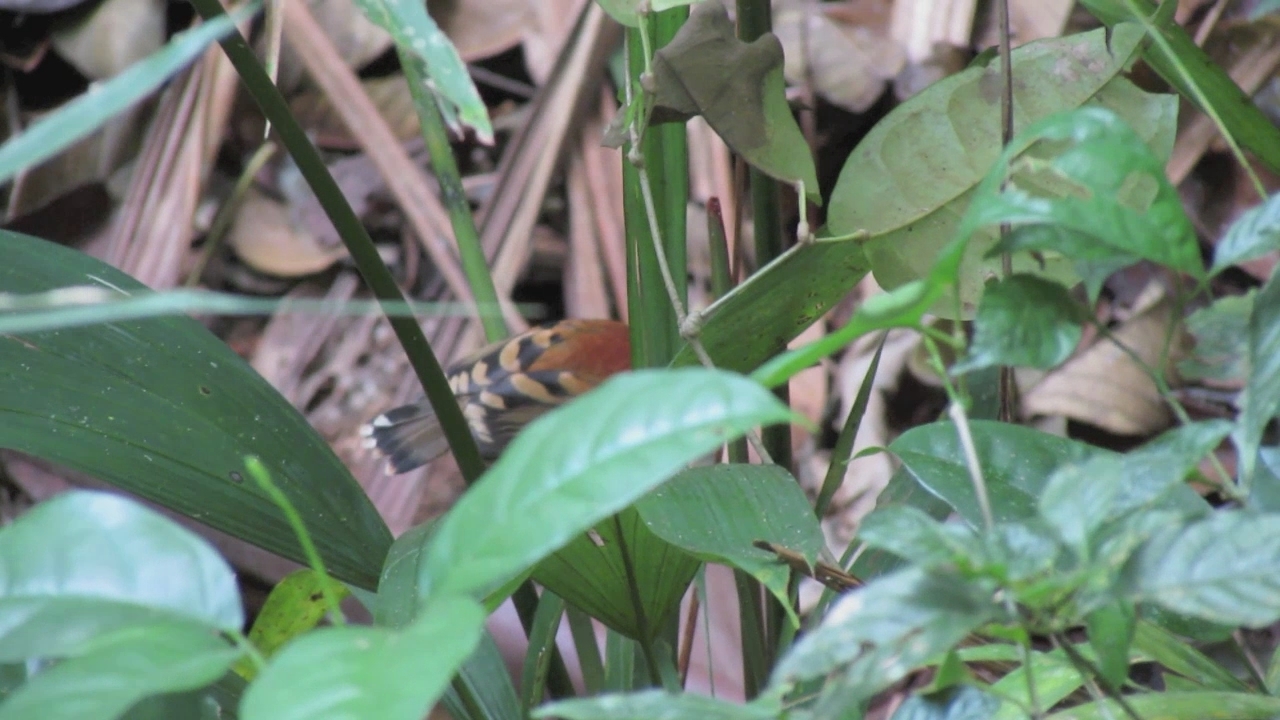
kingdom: Animalia
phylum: Chordata
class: Aves
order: Passeriformes
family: Thamnophilidae
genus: Hylophylax
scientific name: Hylophylax naevioides
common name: Spotted antbird
